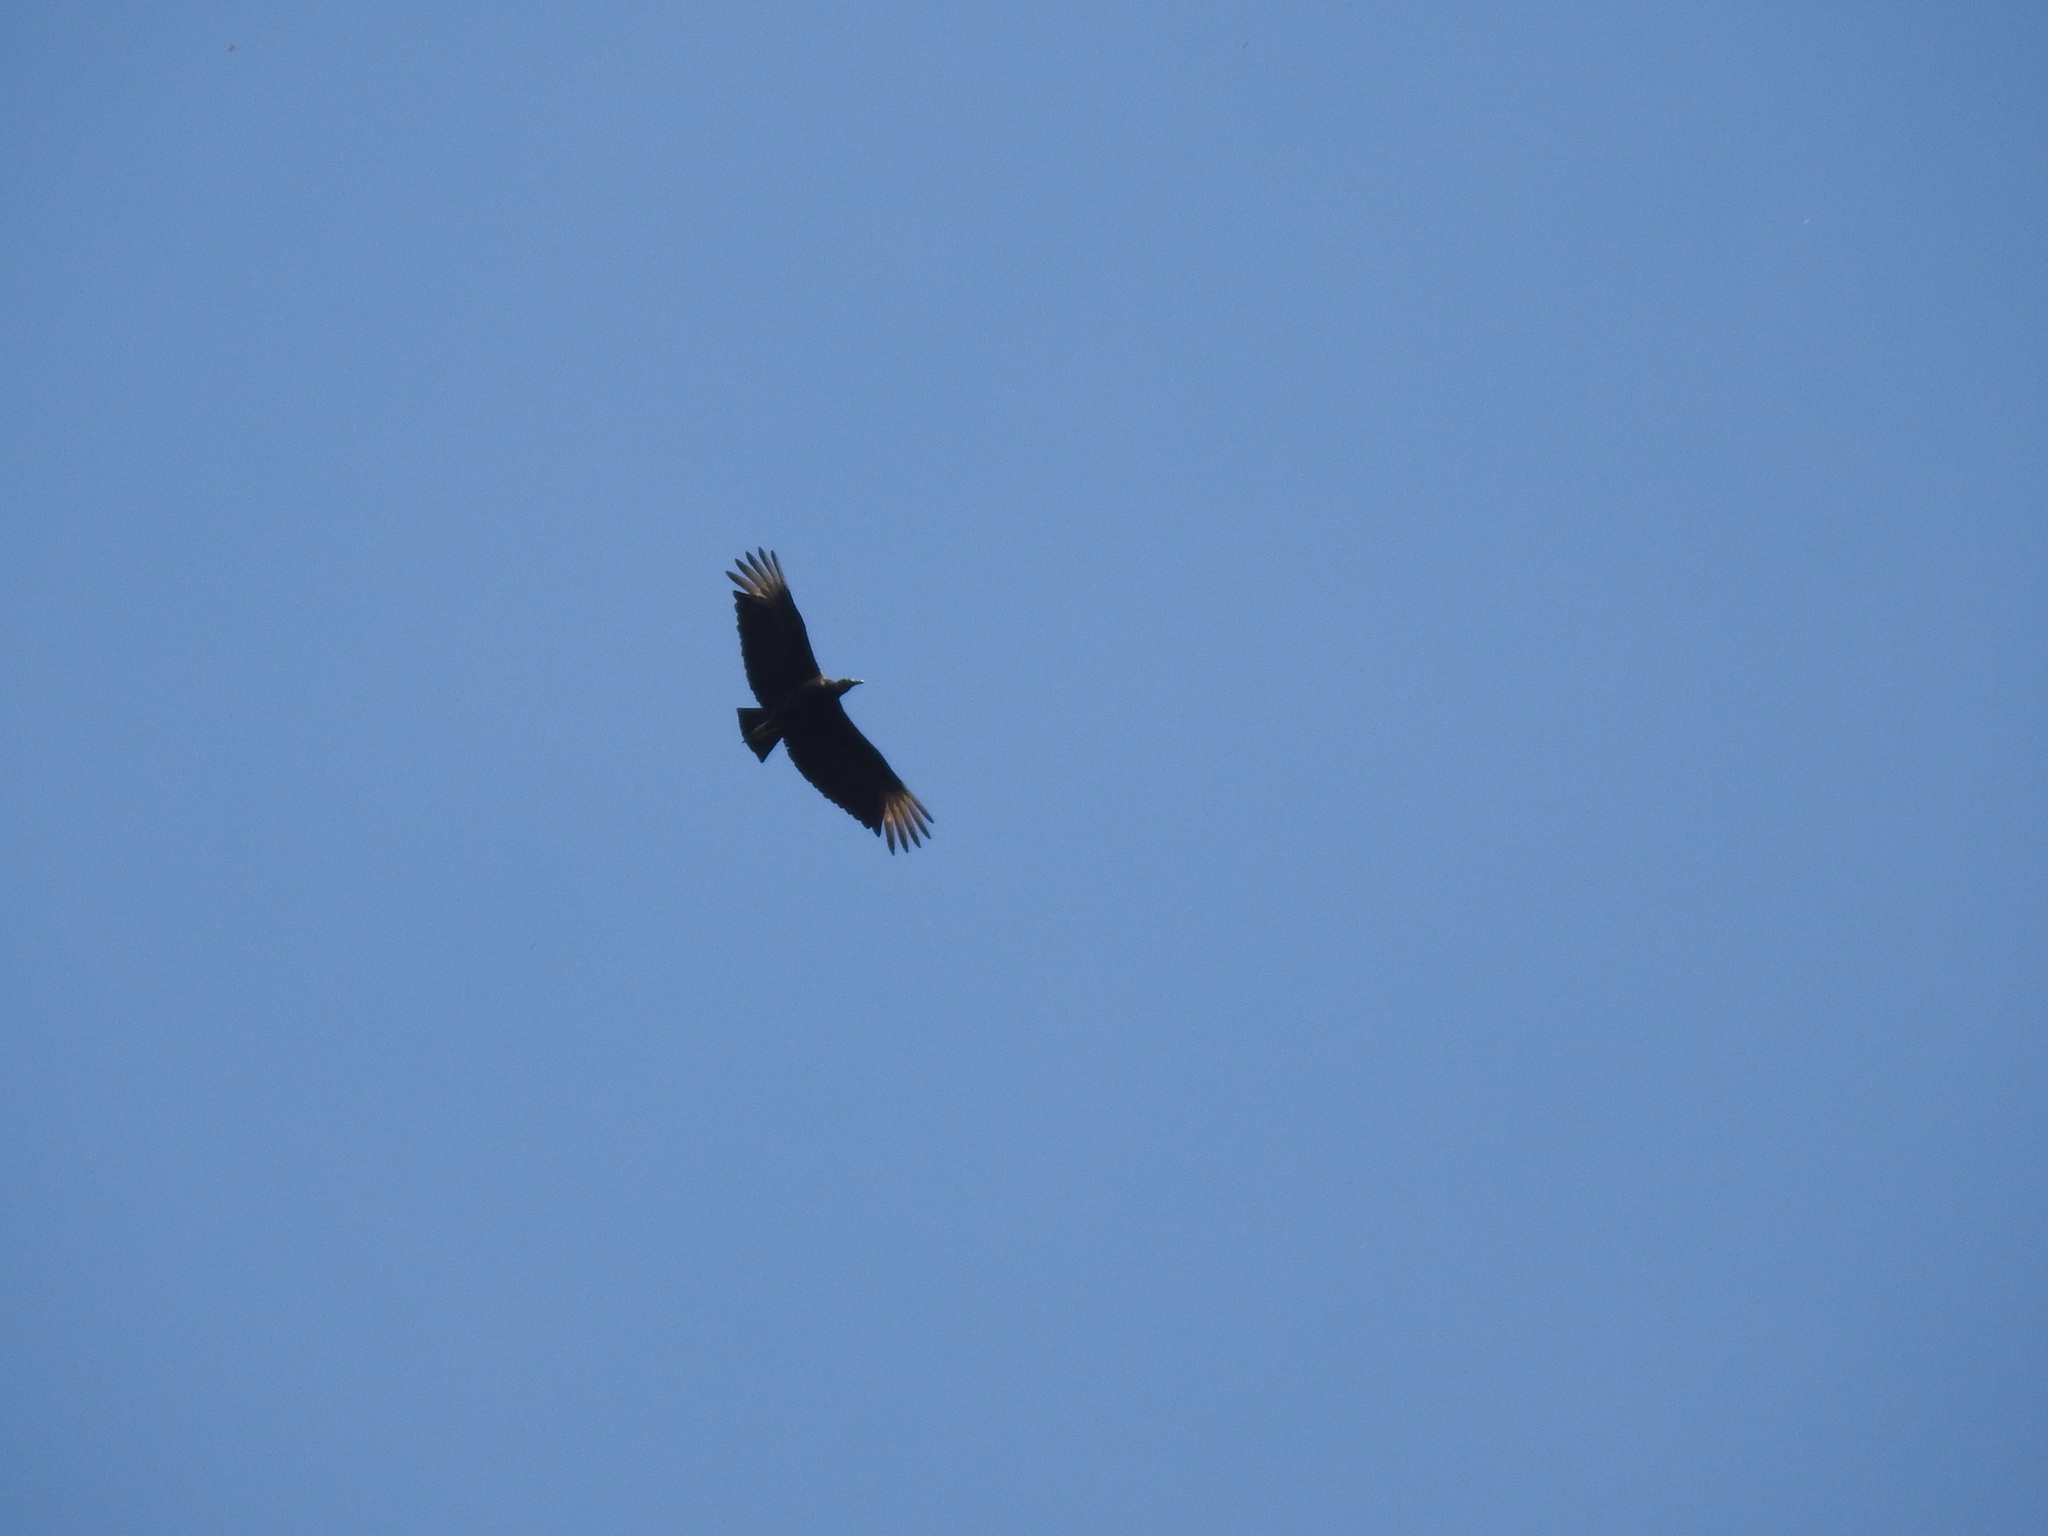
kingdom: Animalia
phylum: Chordata
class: Aves
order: Accipitriformes
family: Cathartidae
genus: Coragyps
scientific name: Coragyps atratus
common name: Black vulture
